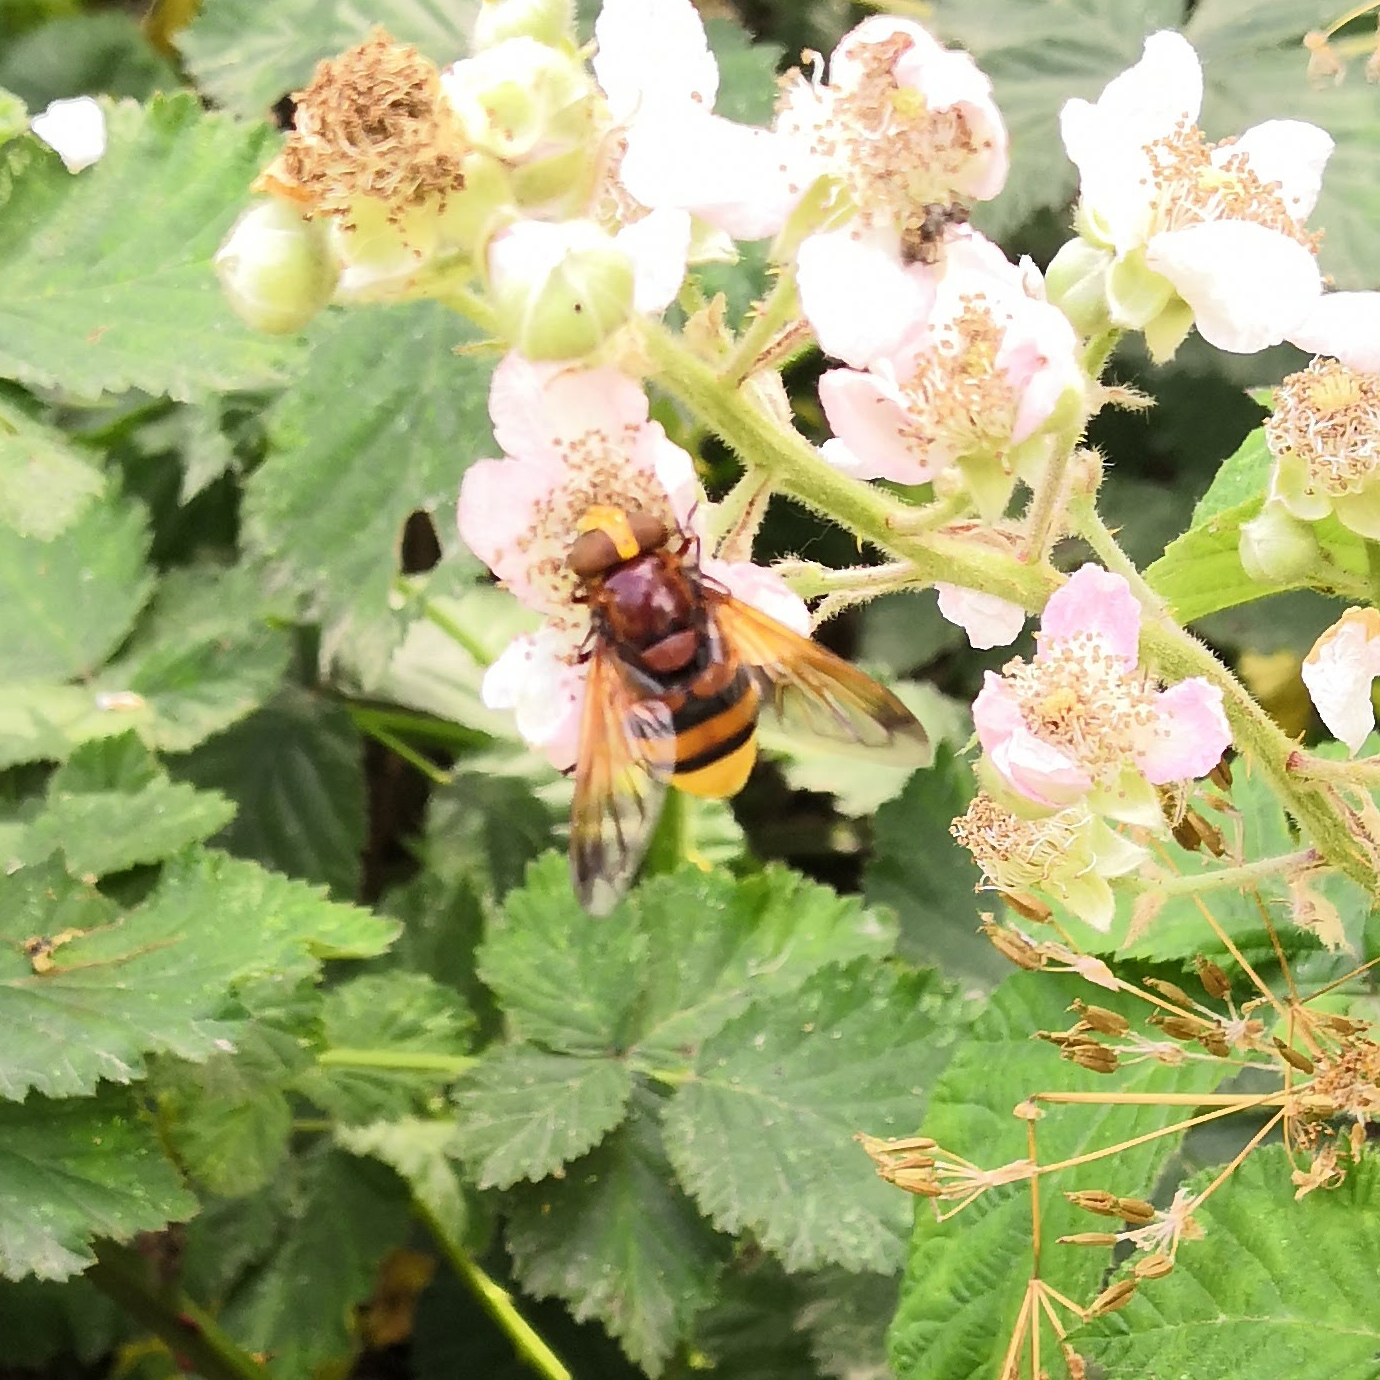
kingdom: Animalia
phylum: Arthropoda
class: Insecta
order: Diptera
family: Syrphidae
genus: Volucella
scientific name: Volucella zonaria
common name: Hornet hoverfly
